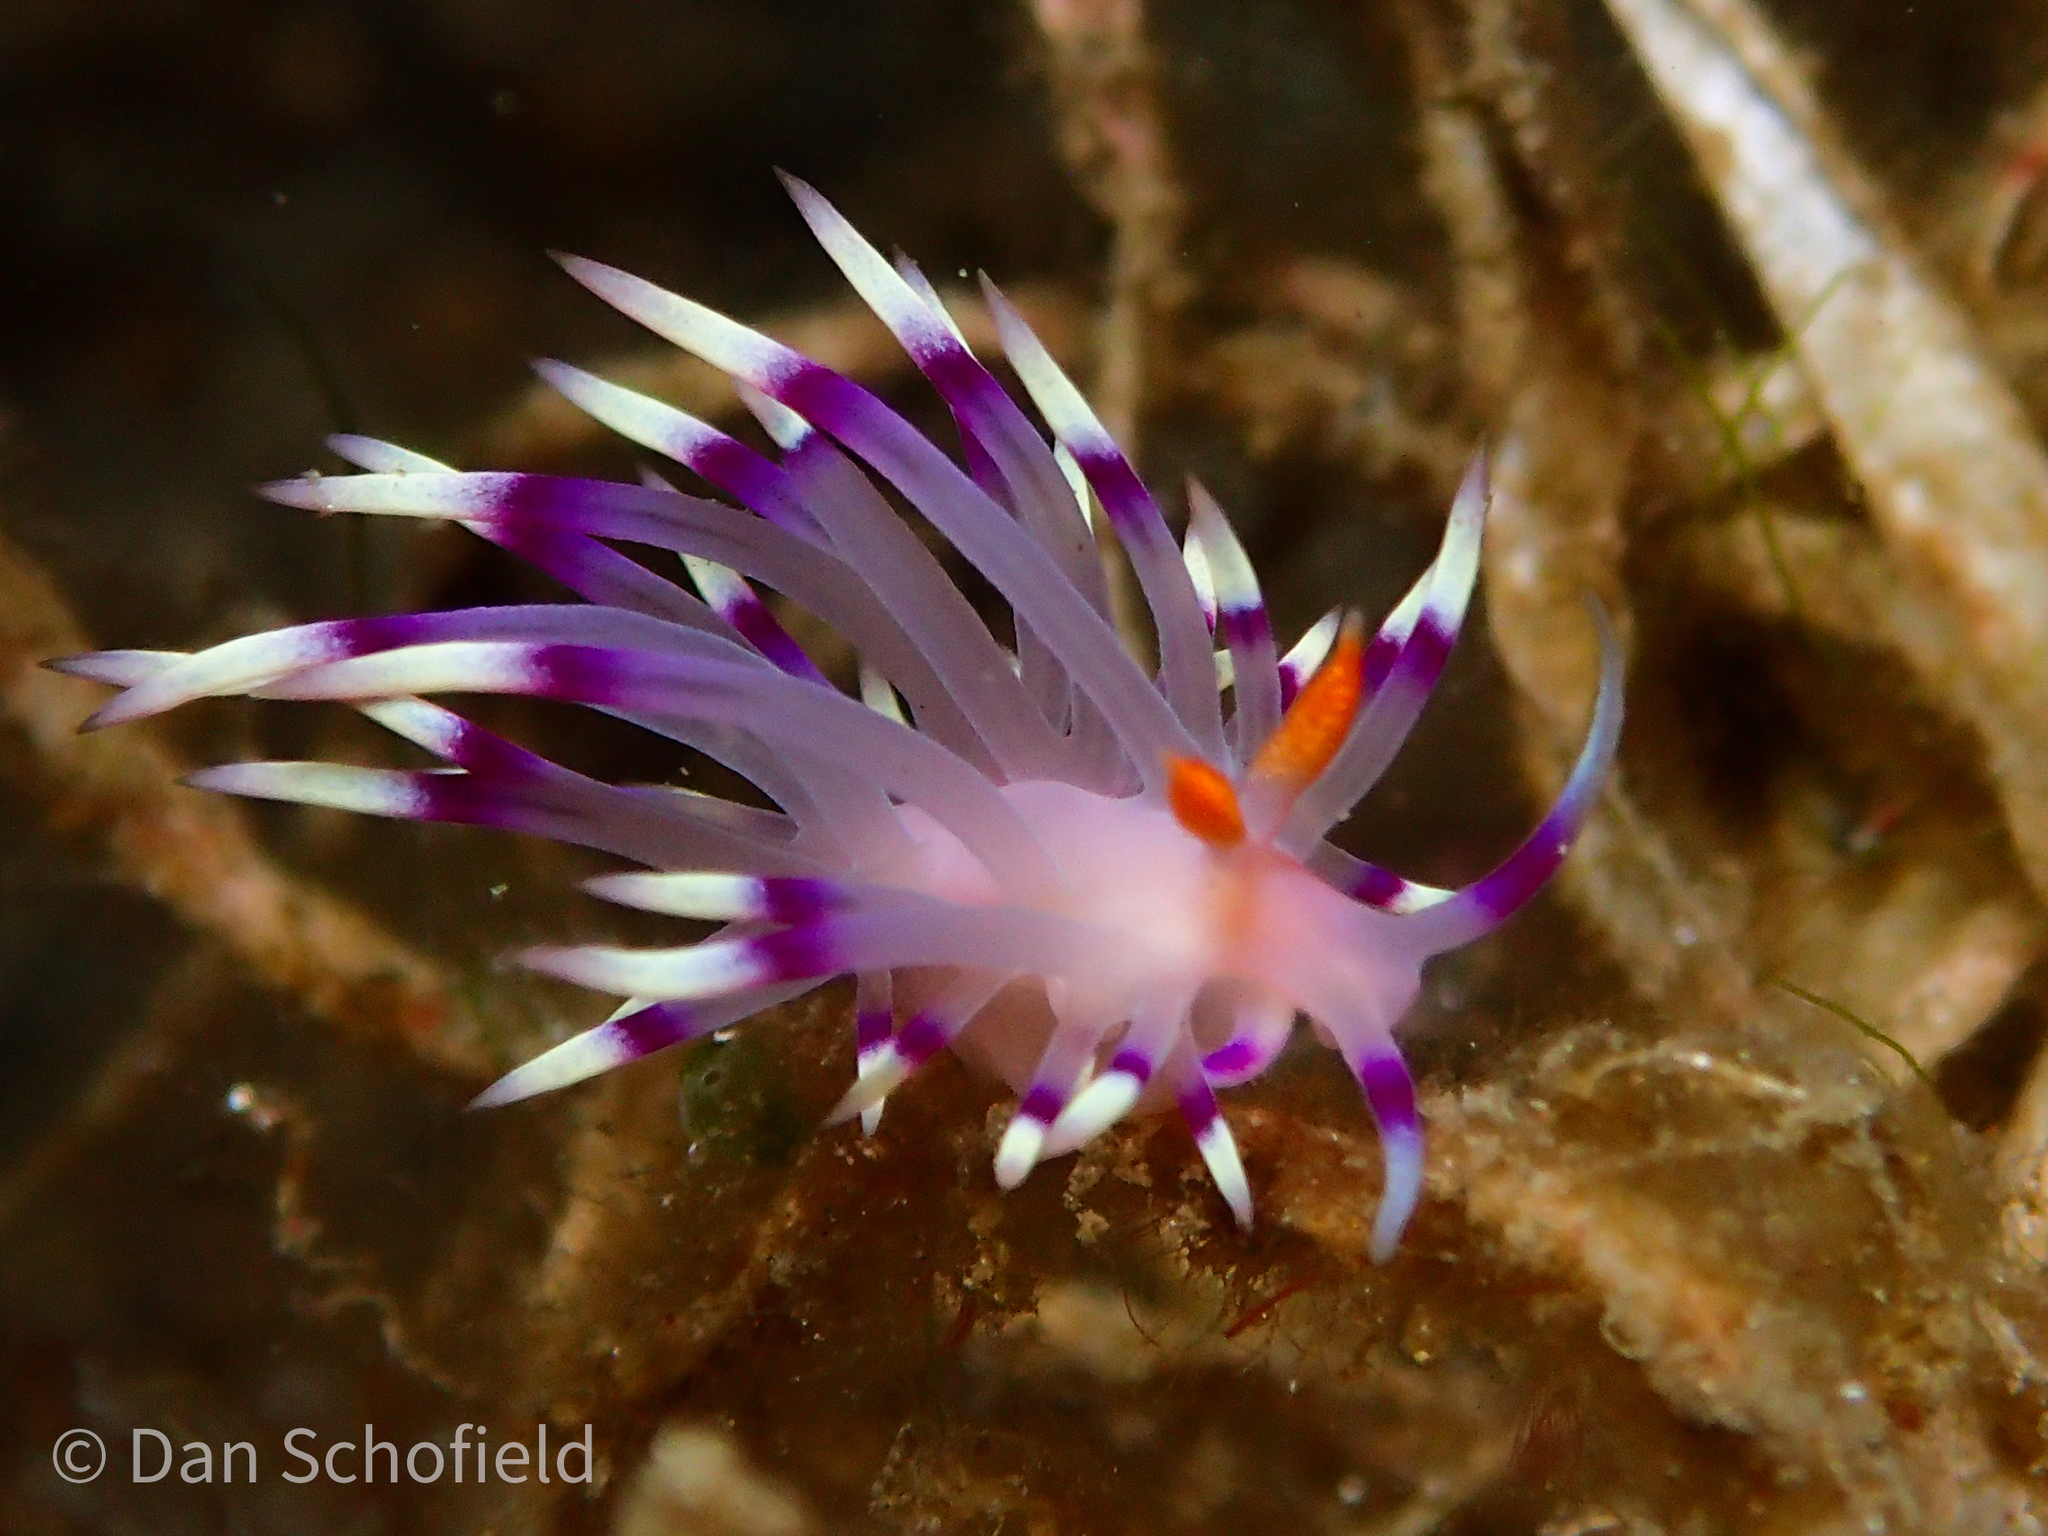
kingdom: Animalia
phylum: Mollusca
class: Gastropoda
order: Nudibranchia
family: Flabellinidae
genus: Coryphellina
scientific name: Coryphellina exoptata
